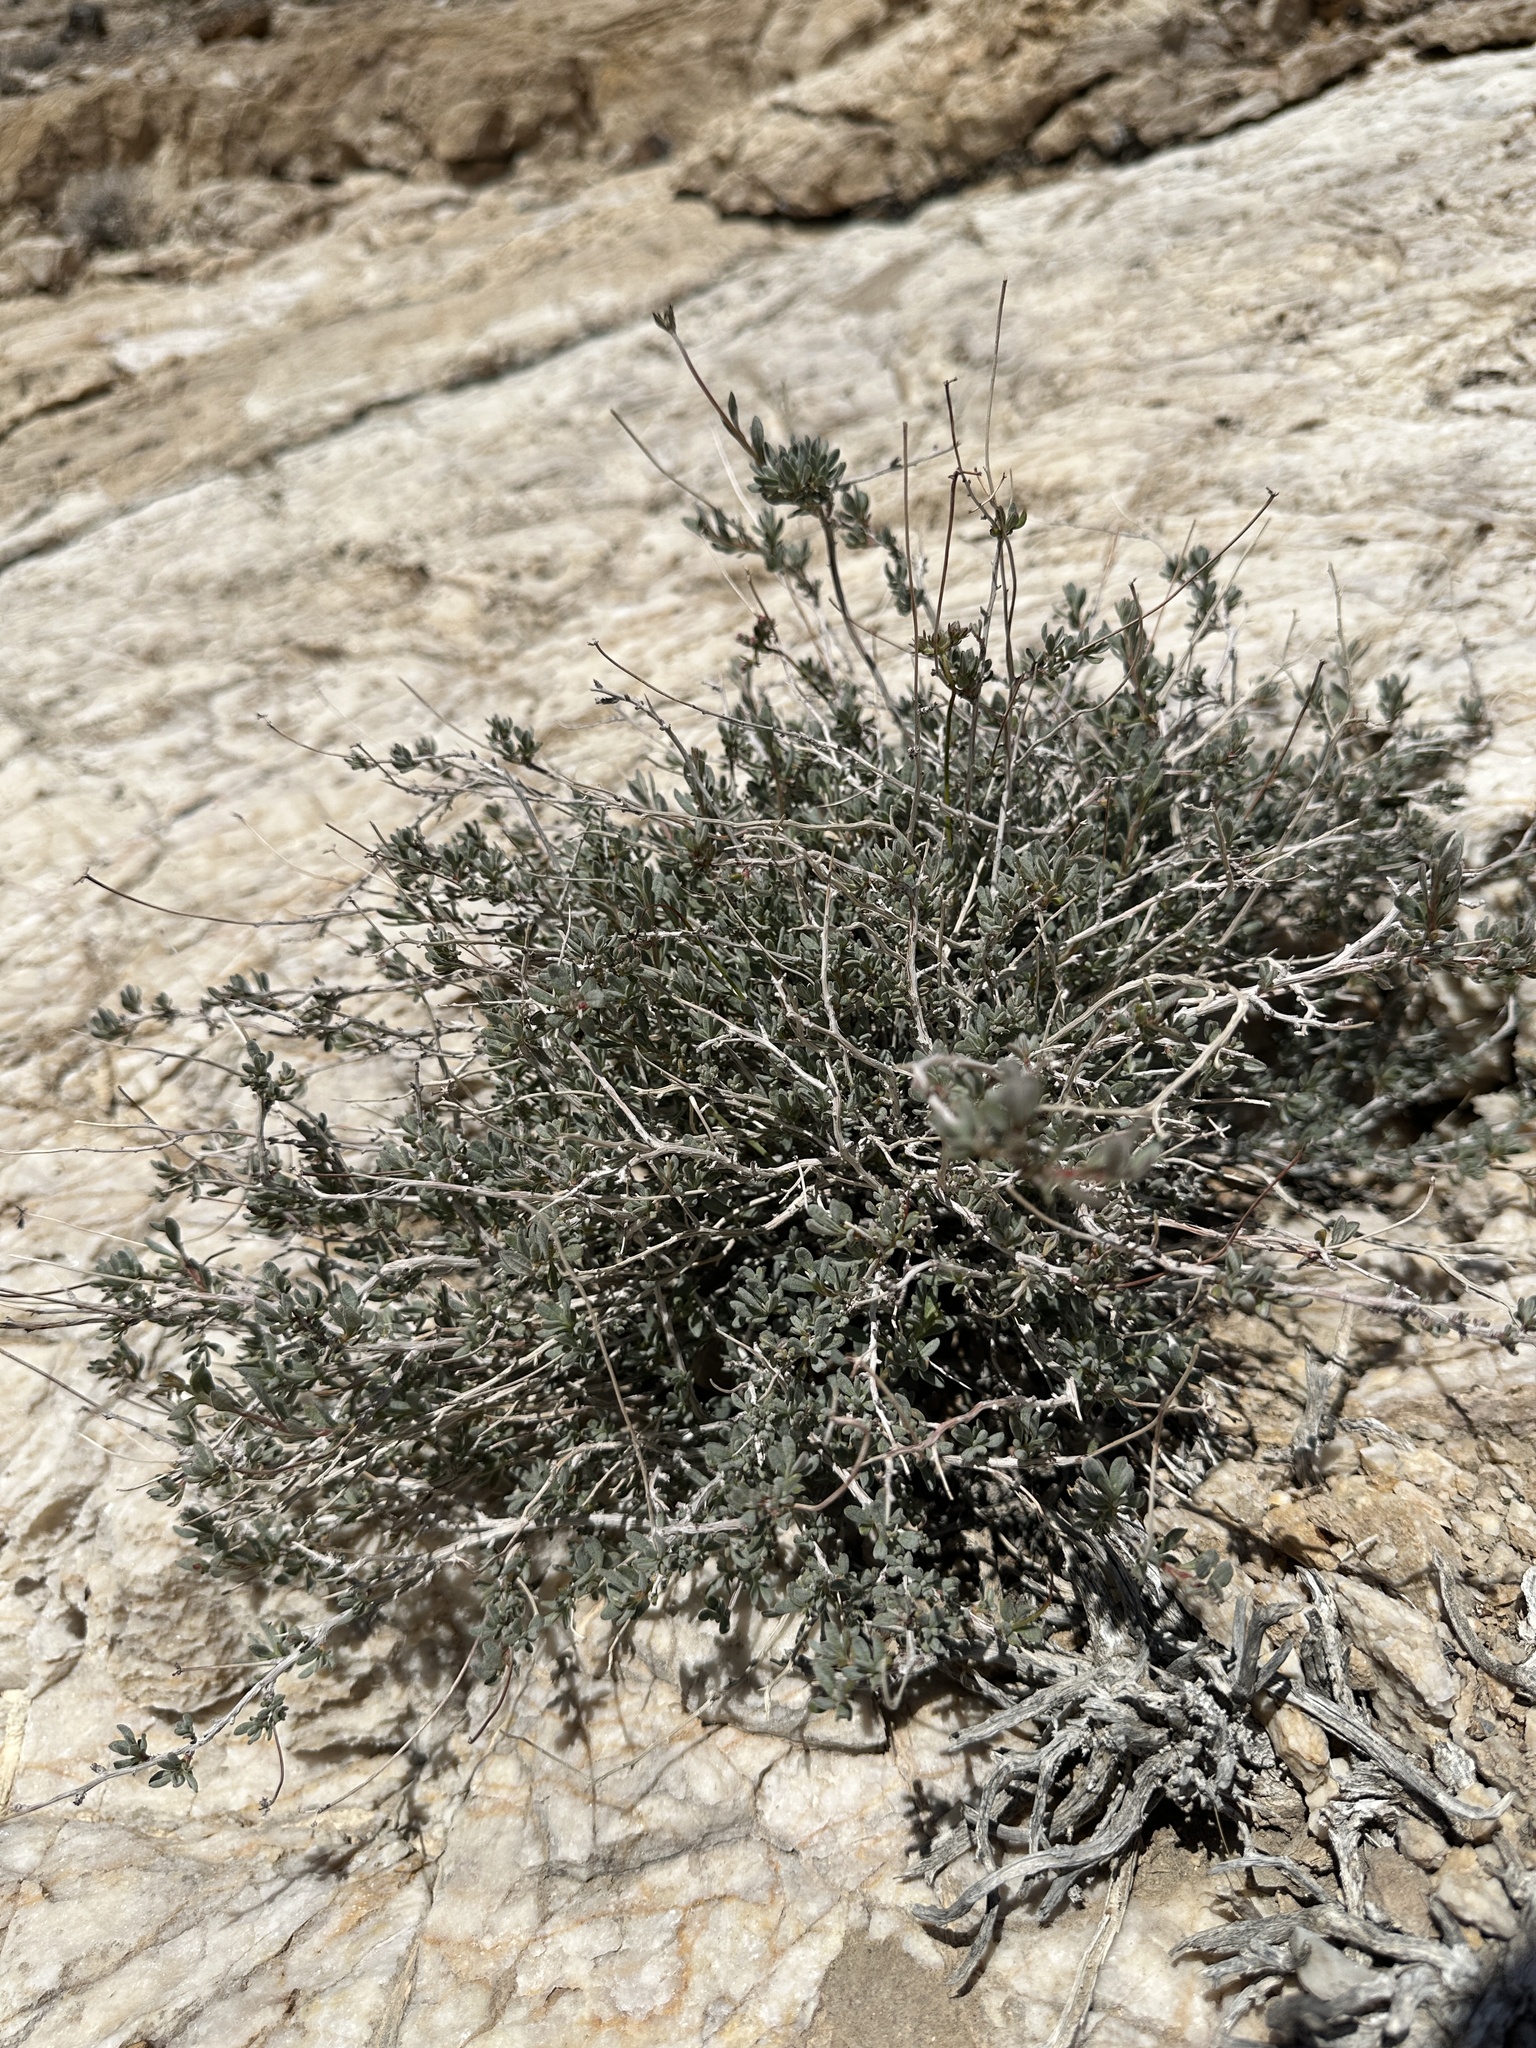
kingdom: Plantae
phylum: Tracheophyta
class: Magnoliopsida
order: Caryophyllales
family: Polygonaceae
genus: Eriogonum
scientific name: Eriogonum fasciculatum
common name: California wild buckwheat
